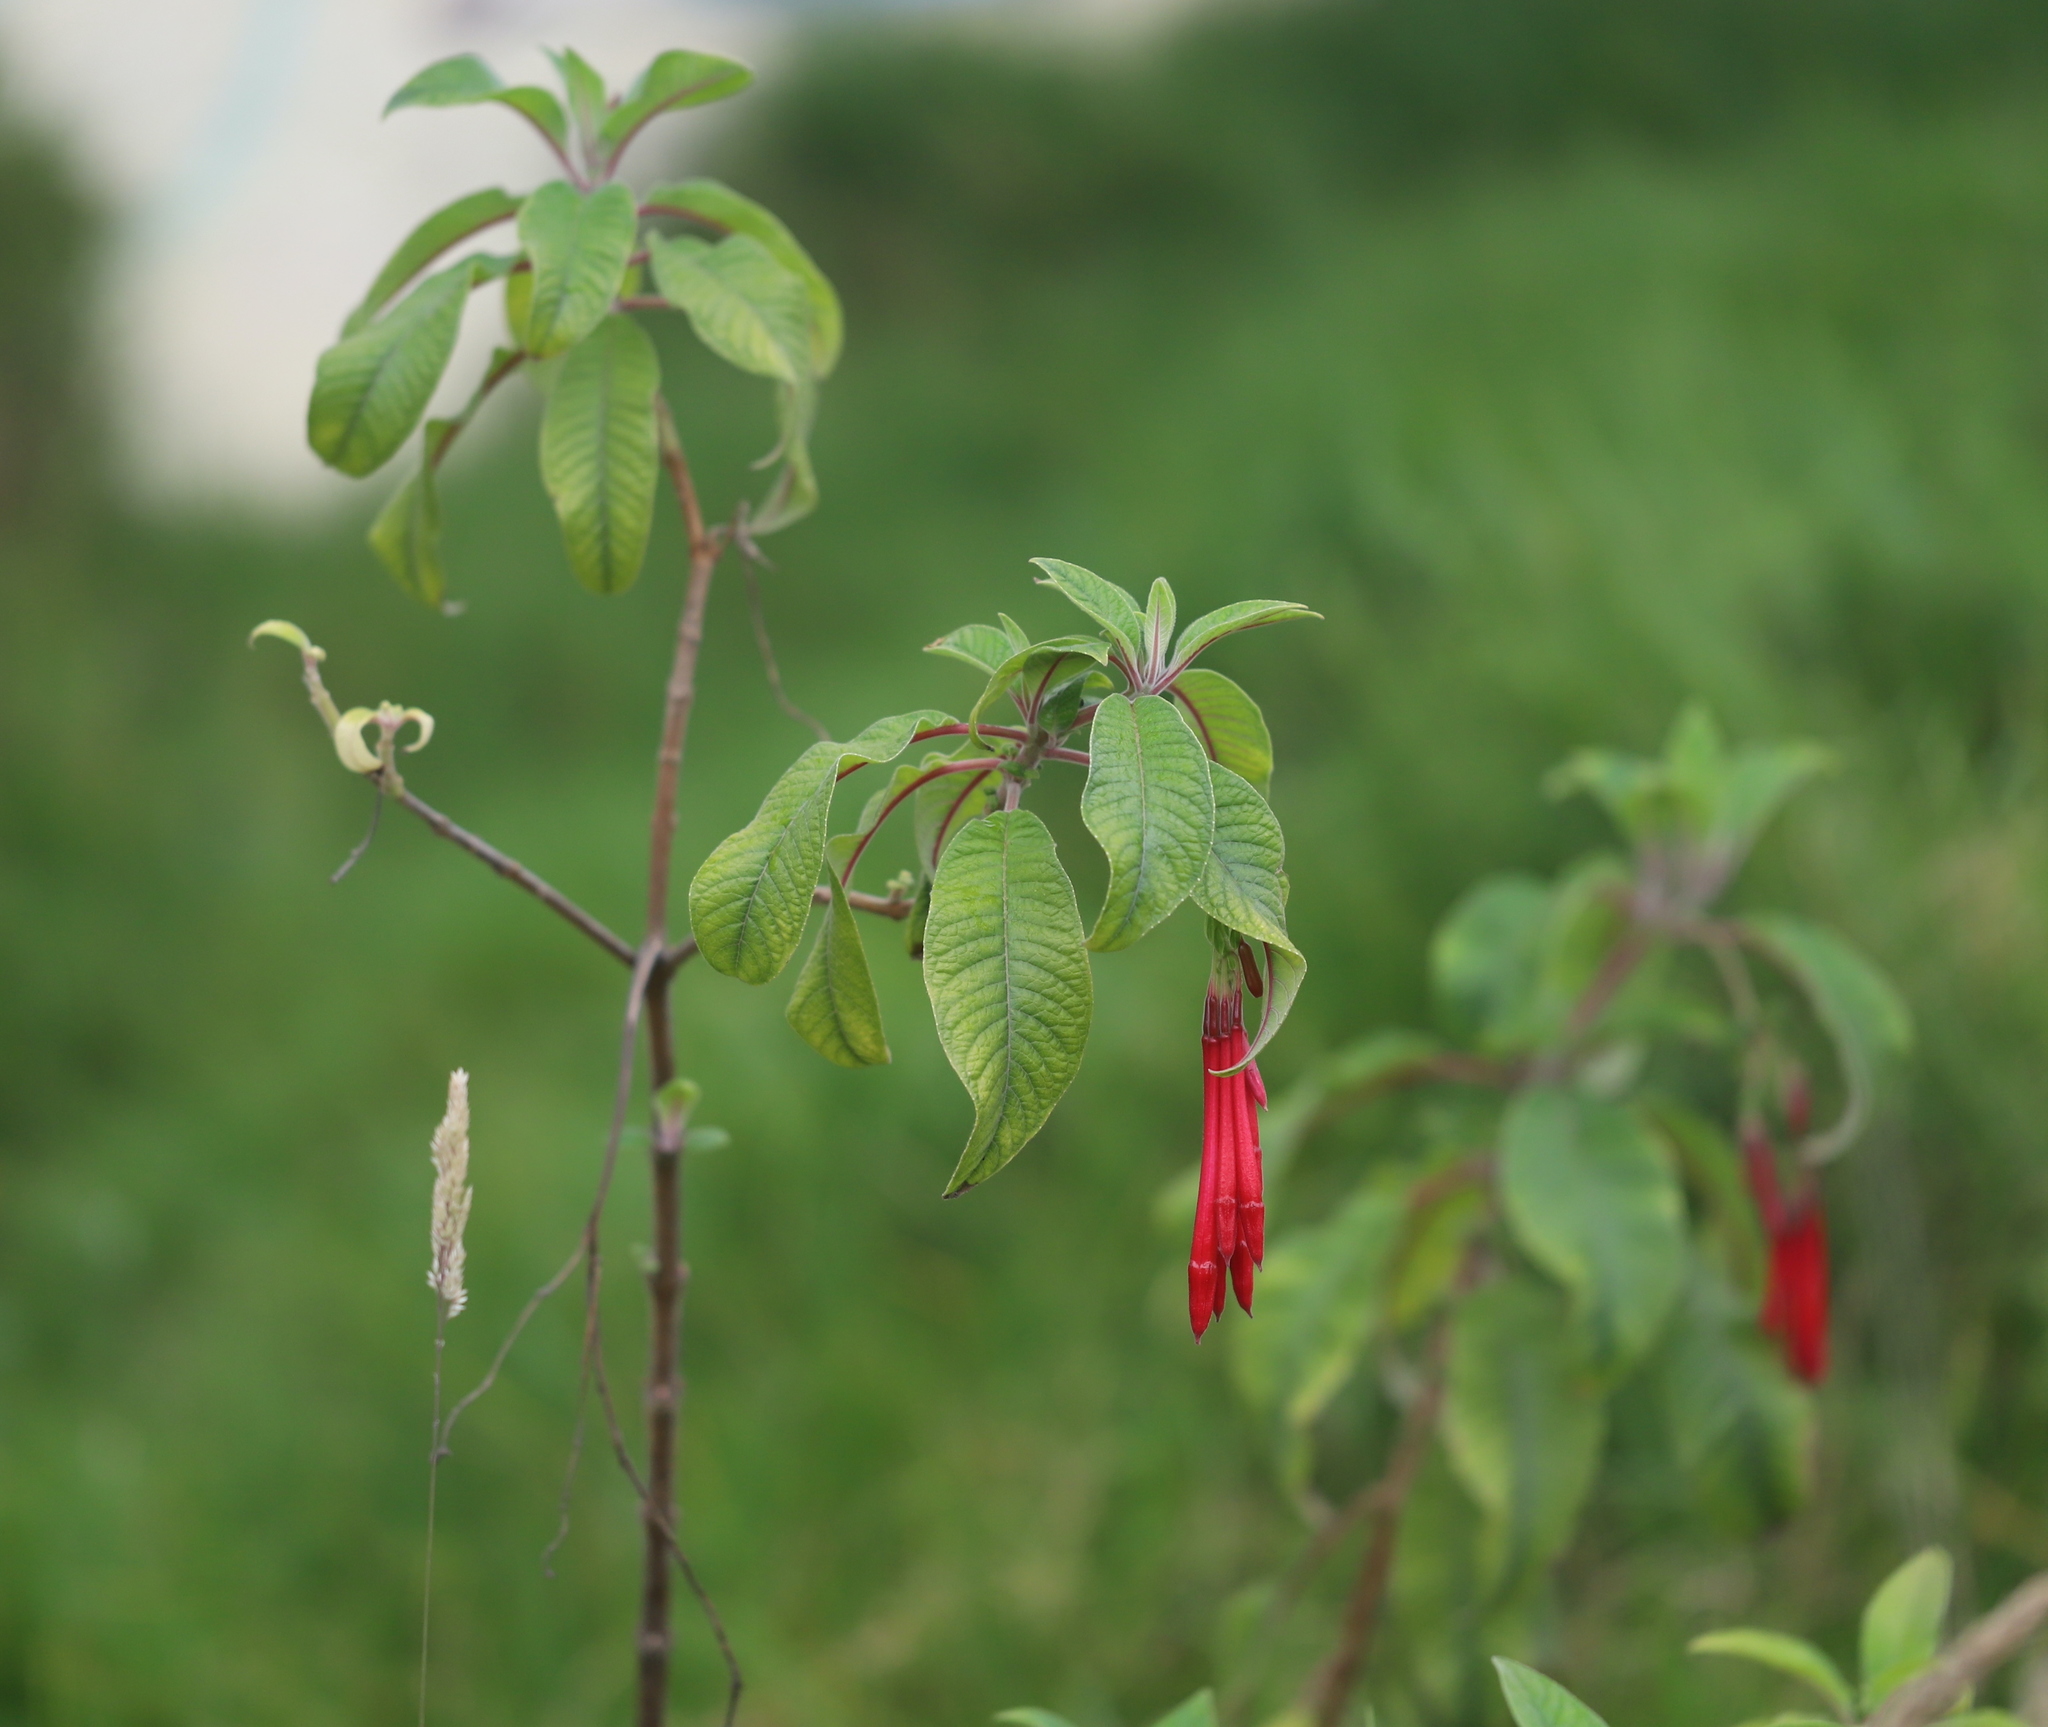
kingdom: Plantae
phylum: Tracheophyta
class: Magnoliopsida
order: Myrtales
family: Onagraceae
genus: Fuchsia
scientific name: Fuchsia boliviana
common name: Bolivian fuchsia
